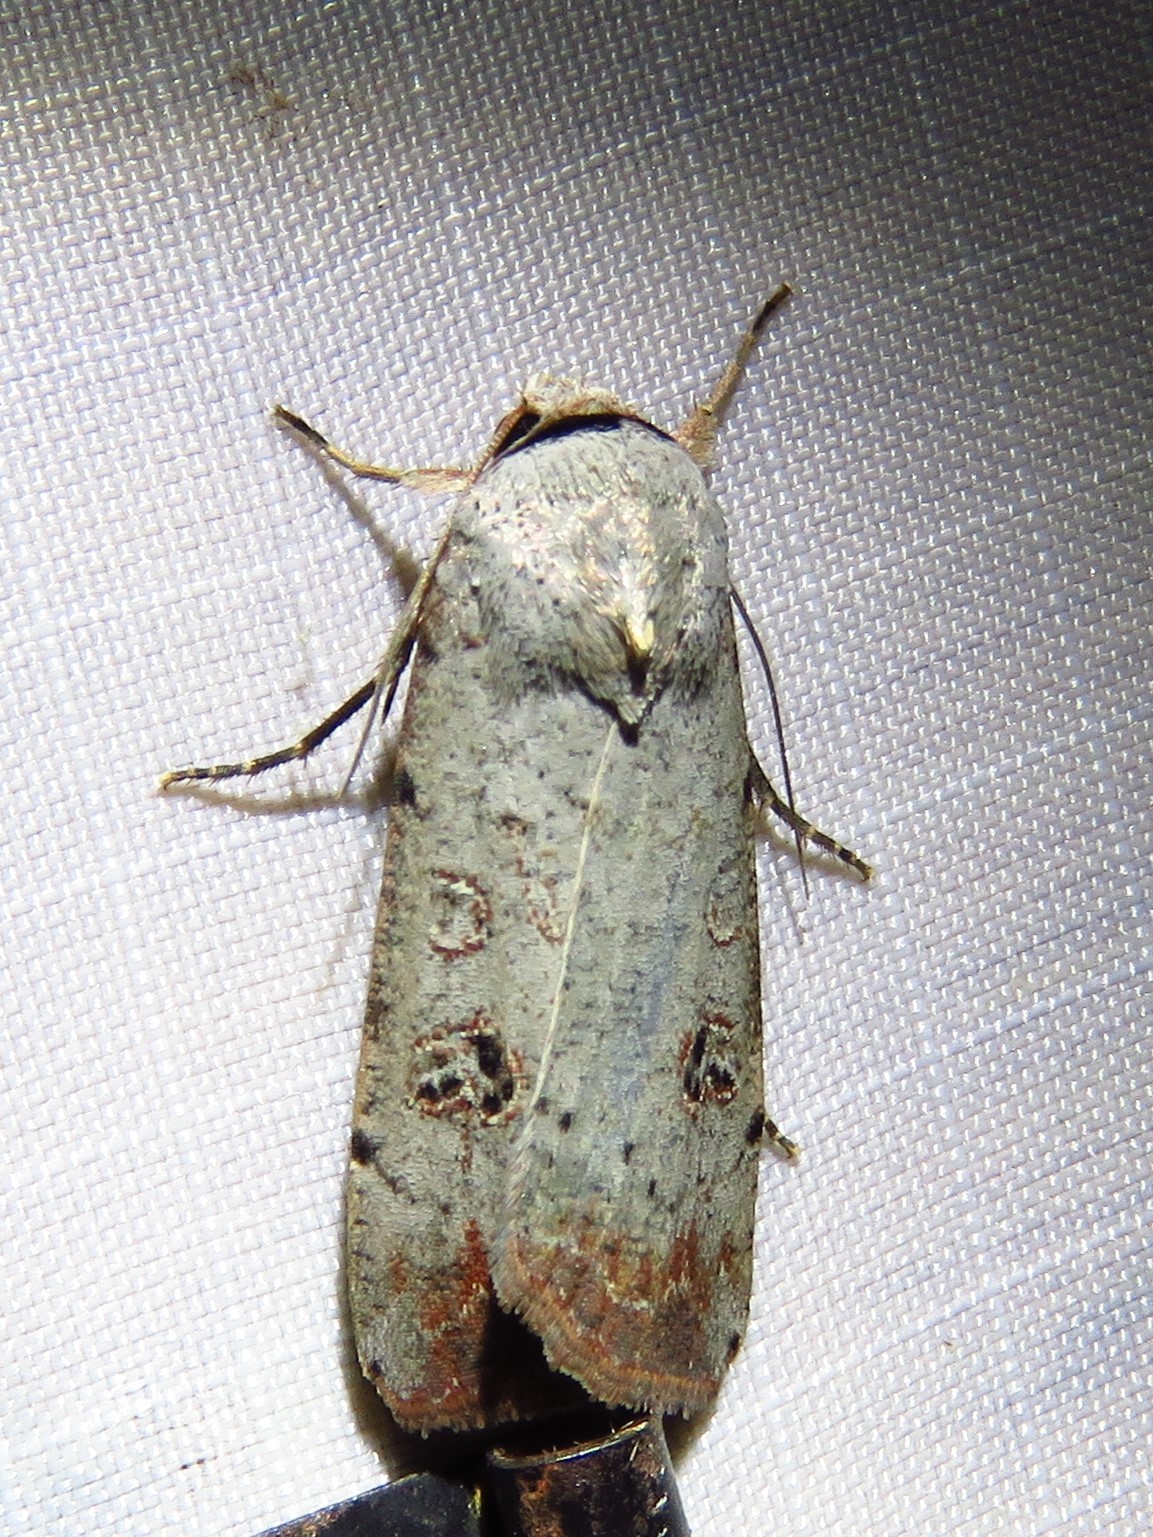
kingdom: Animalia
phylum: Arthropoda
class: Insecta
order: Lepidoptera
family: Noctuidae
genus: Anicla
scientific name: Anicla infecta
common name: Green cutworm
